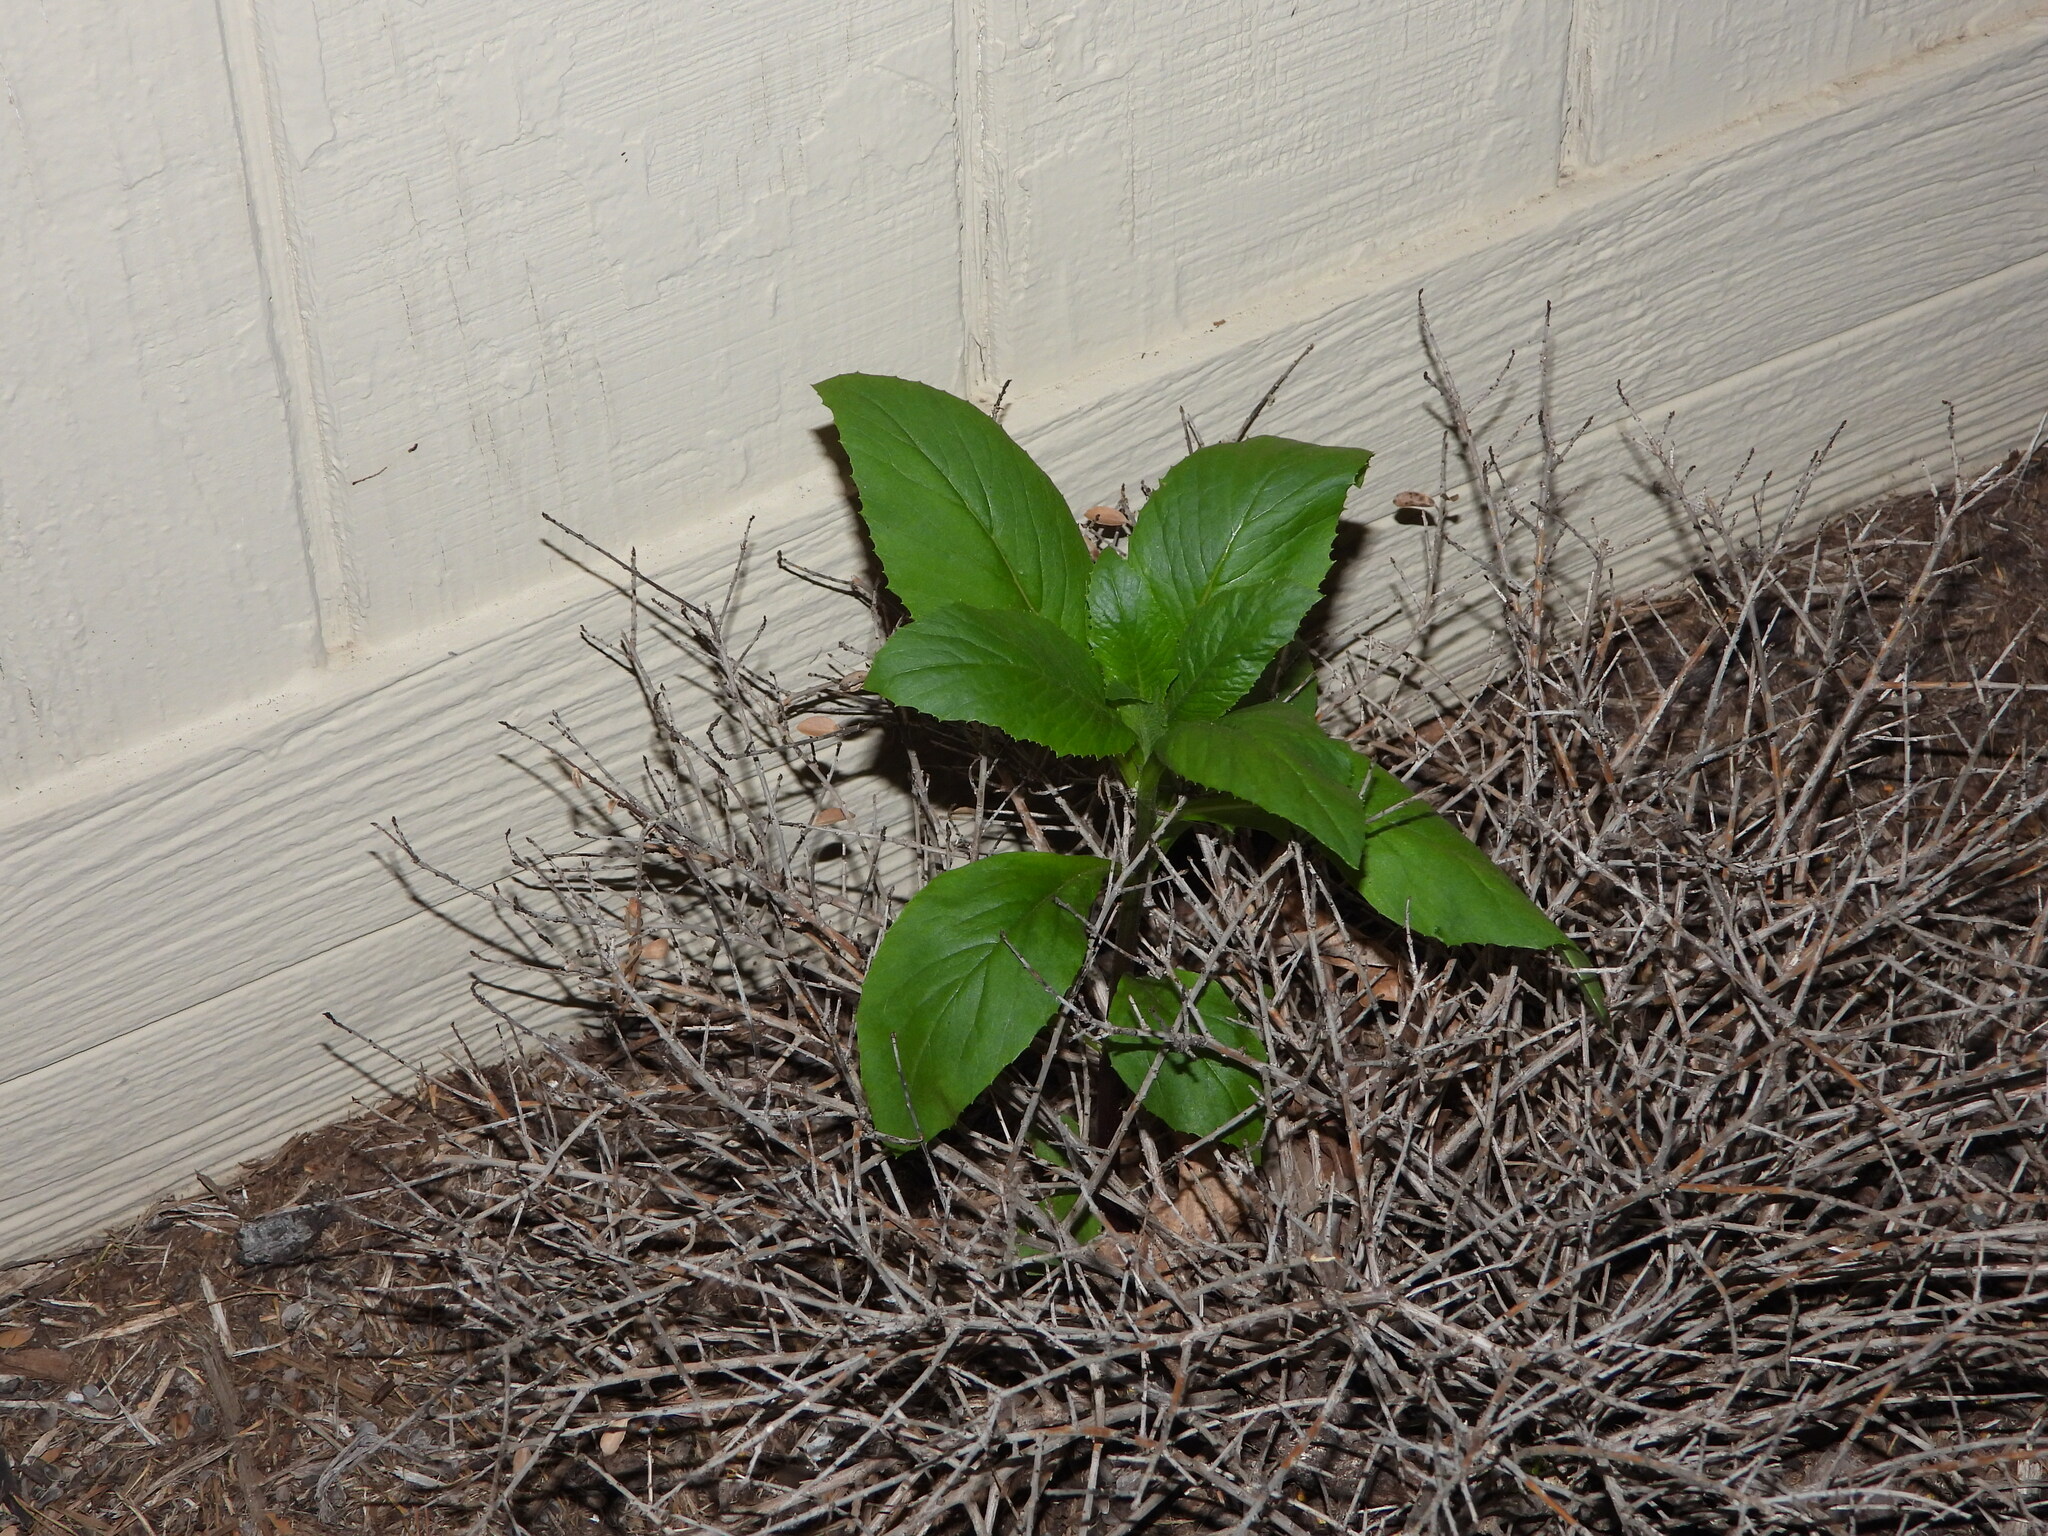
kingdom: Plantae
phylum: Tracheophyta
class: Magnoliopsida
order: Asterales
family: Asteraceae
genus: Erechtites
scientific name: Erechtites hieraciifolius
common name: American burnweed
